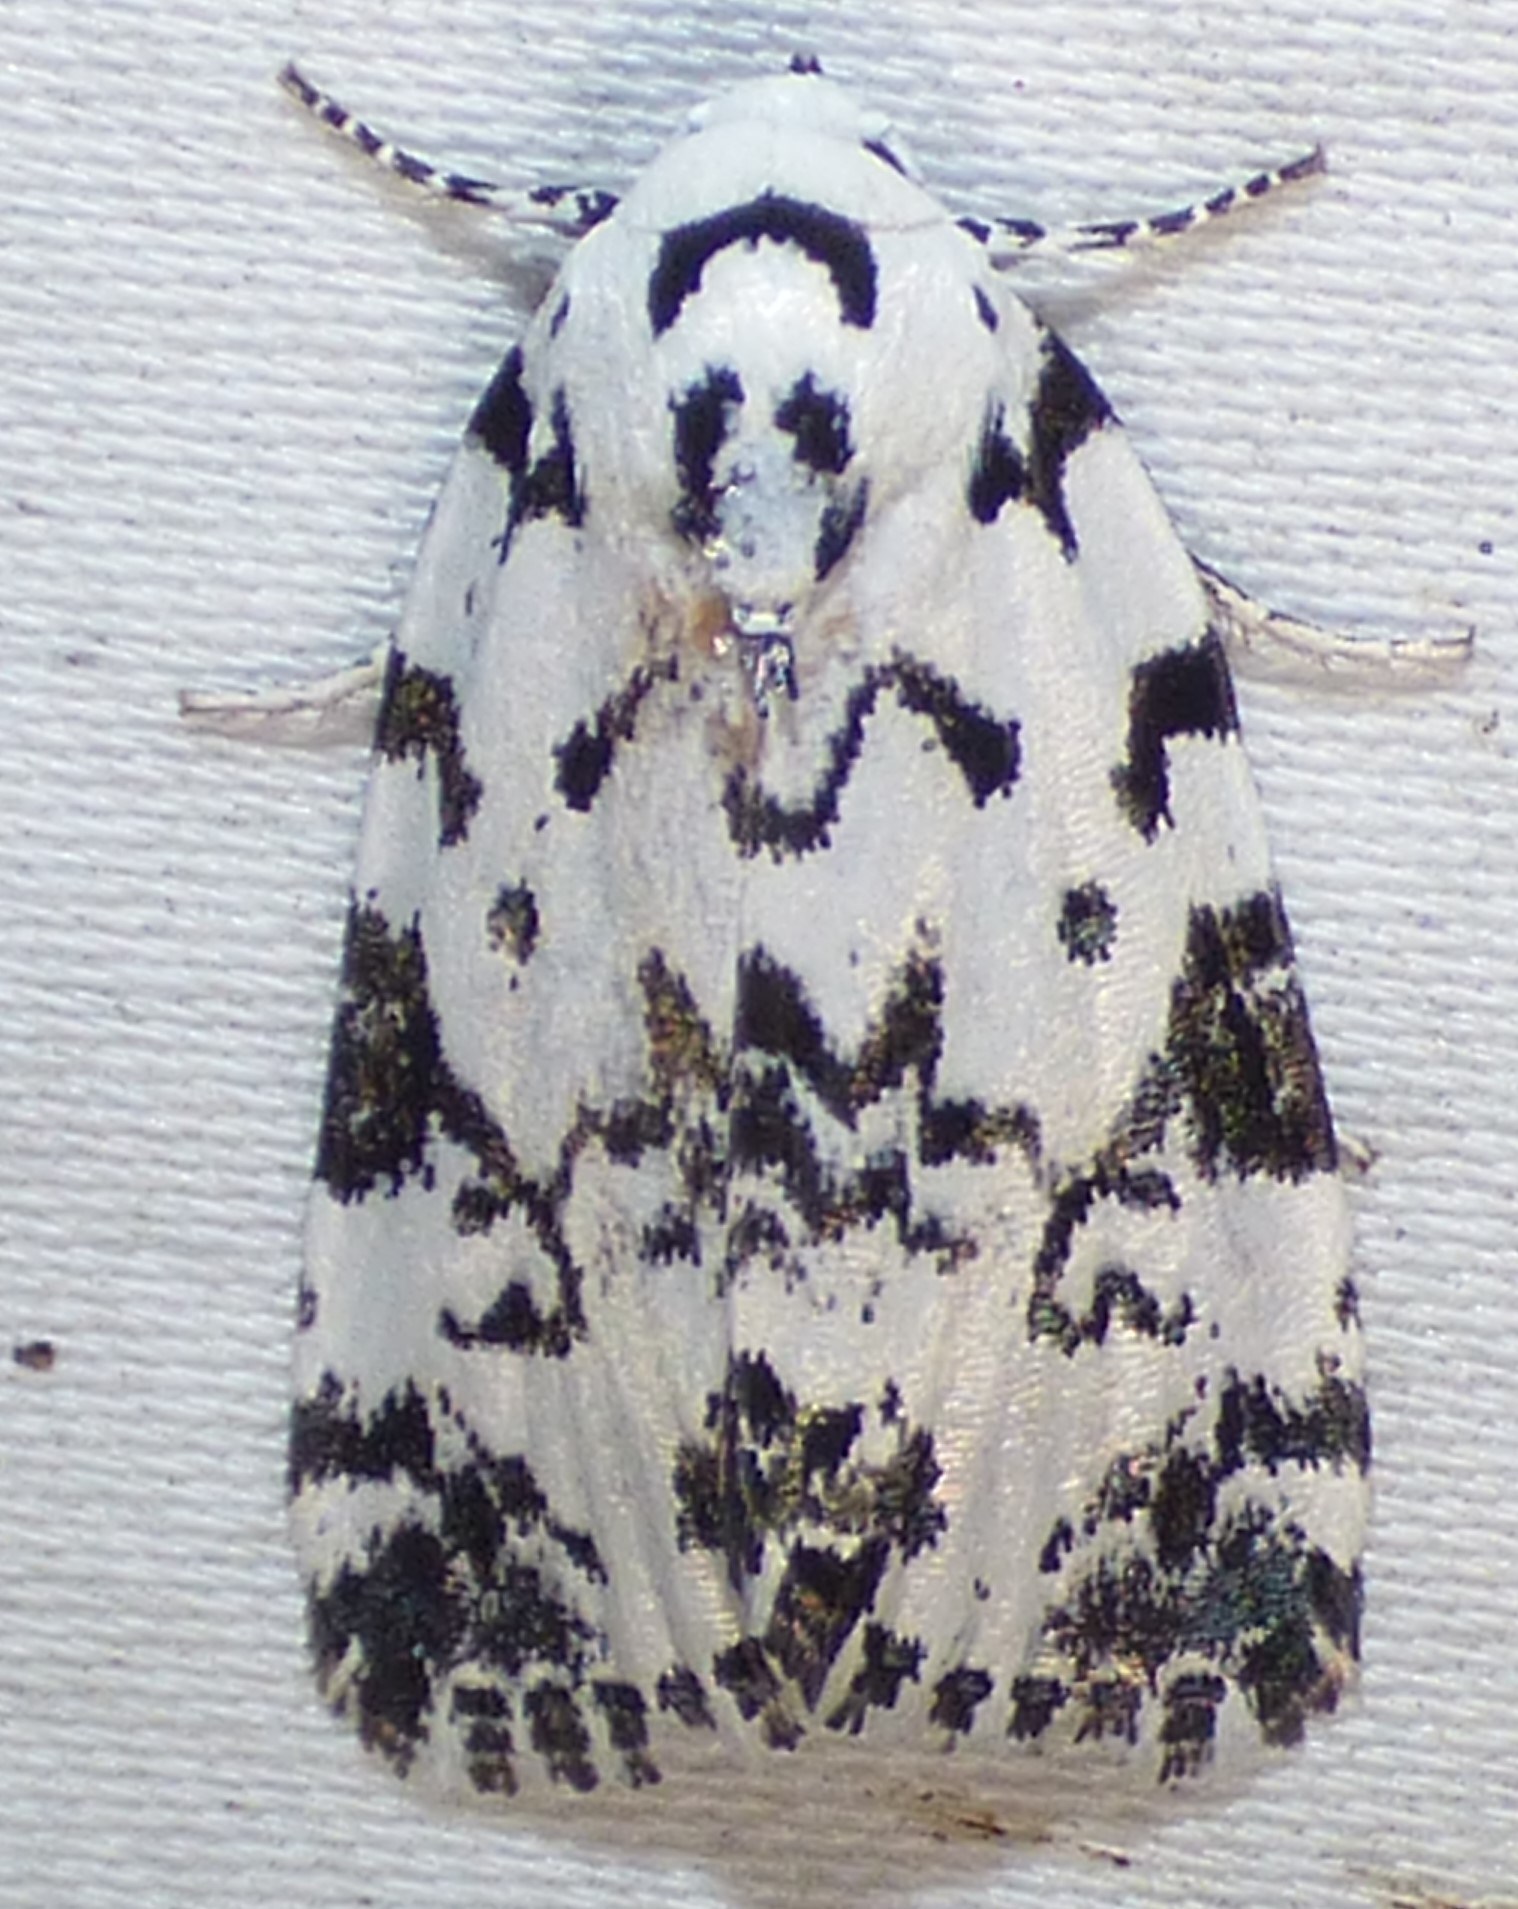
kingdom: Animalia
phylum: Arthropoda
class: Insecta
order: Lepidoptera
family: Noctuidae
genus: Polygrammate
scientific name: Polygrammate hebraeicum
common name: Hebrew moth
